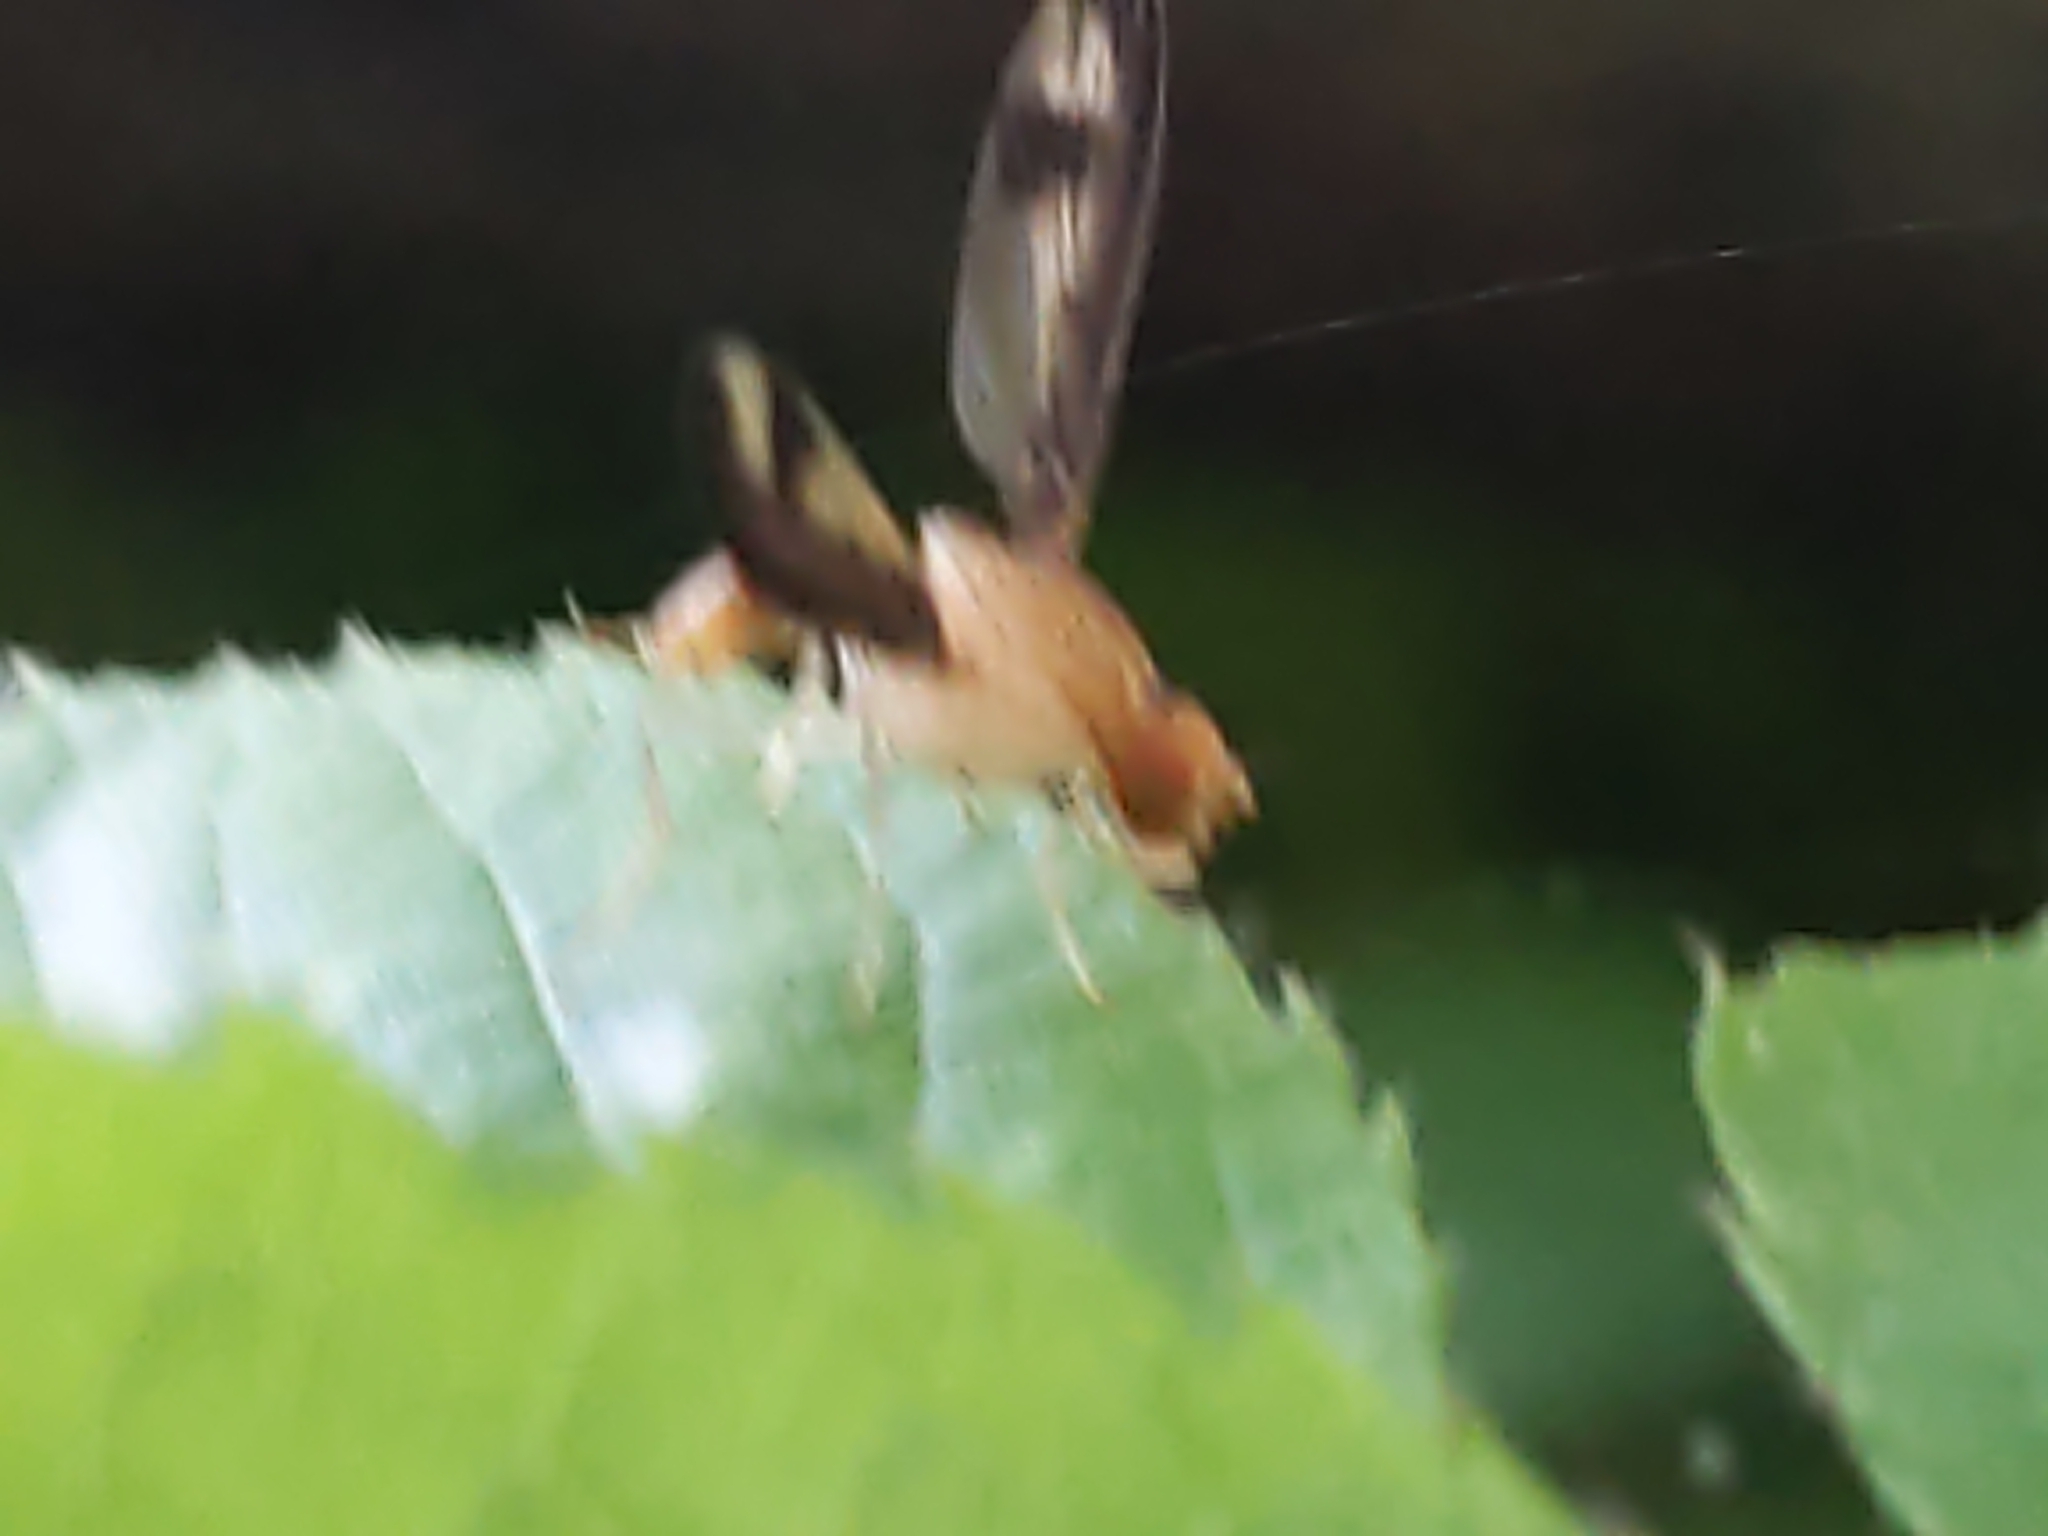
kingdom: Animalia
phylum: Arthropoda
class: Insecta
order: Diptera
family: Pallopteridae
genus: Toxonevra
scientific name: Toxonevra superba
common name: Antlered flutter fly
